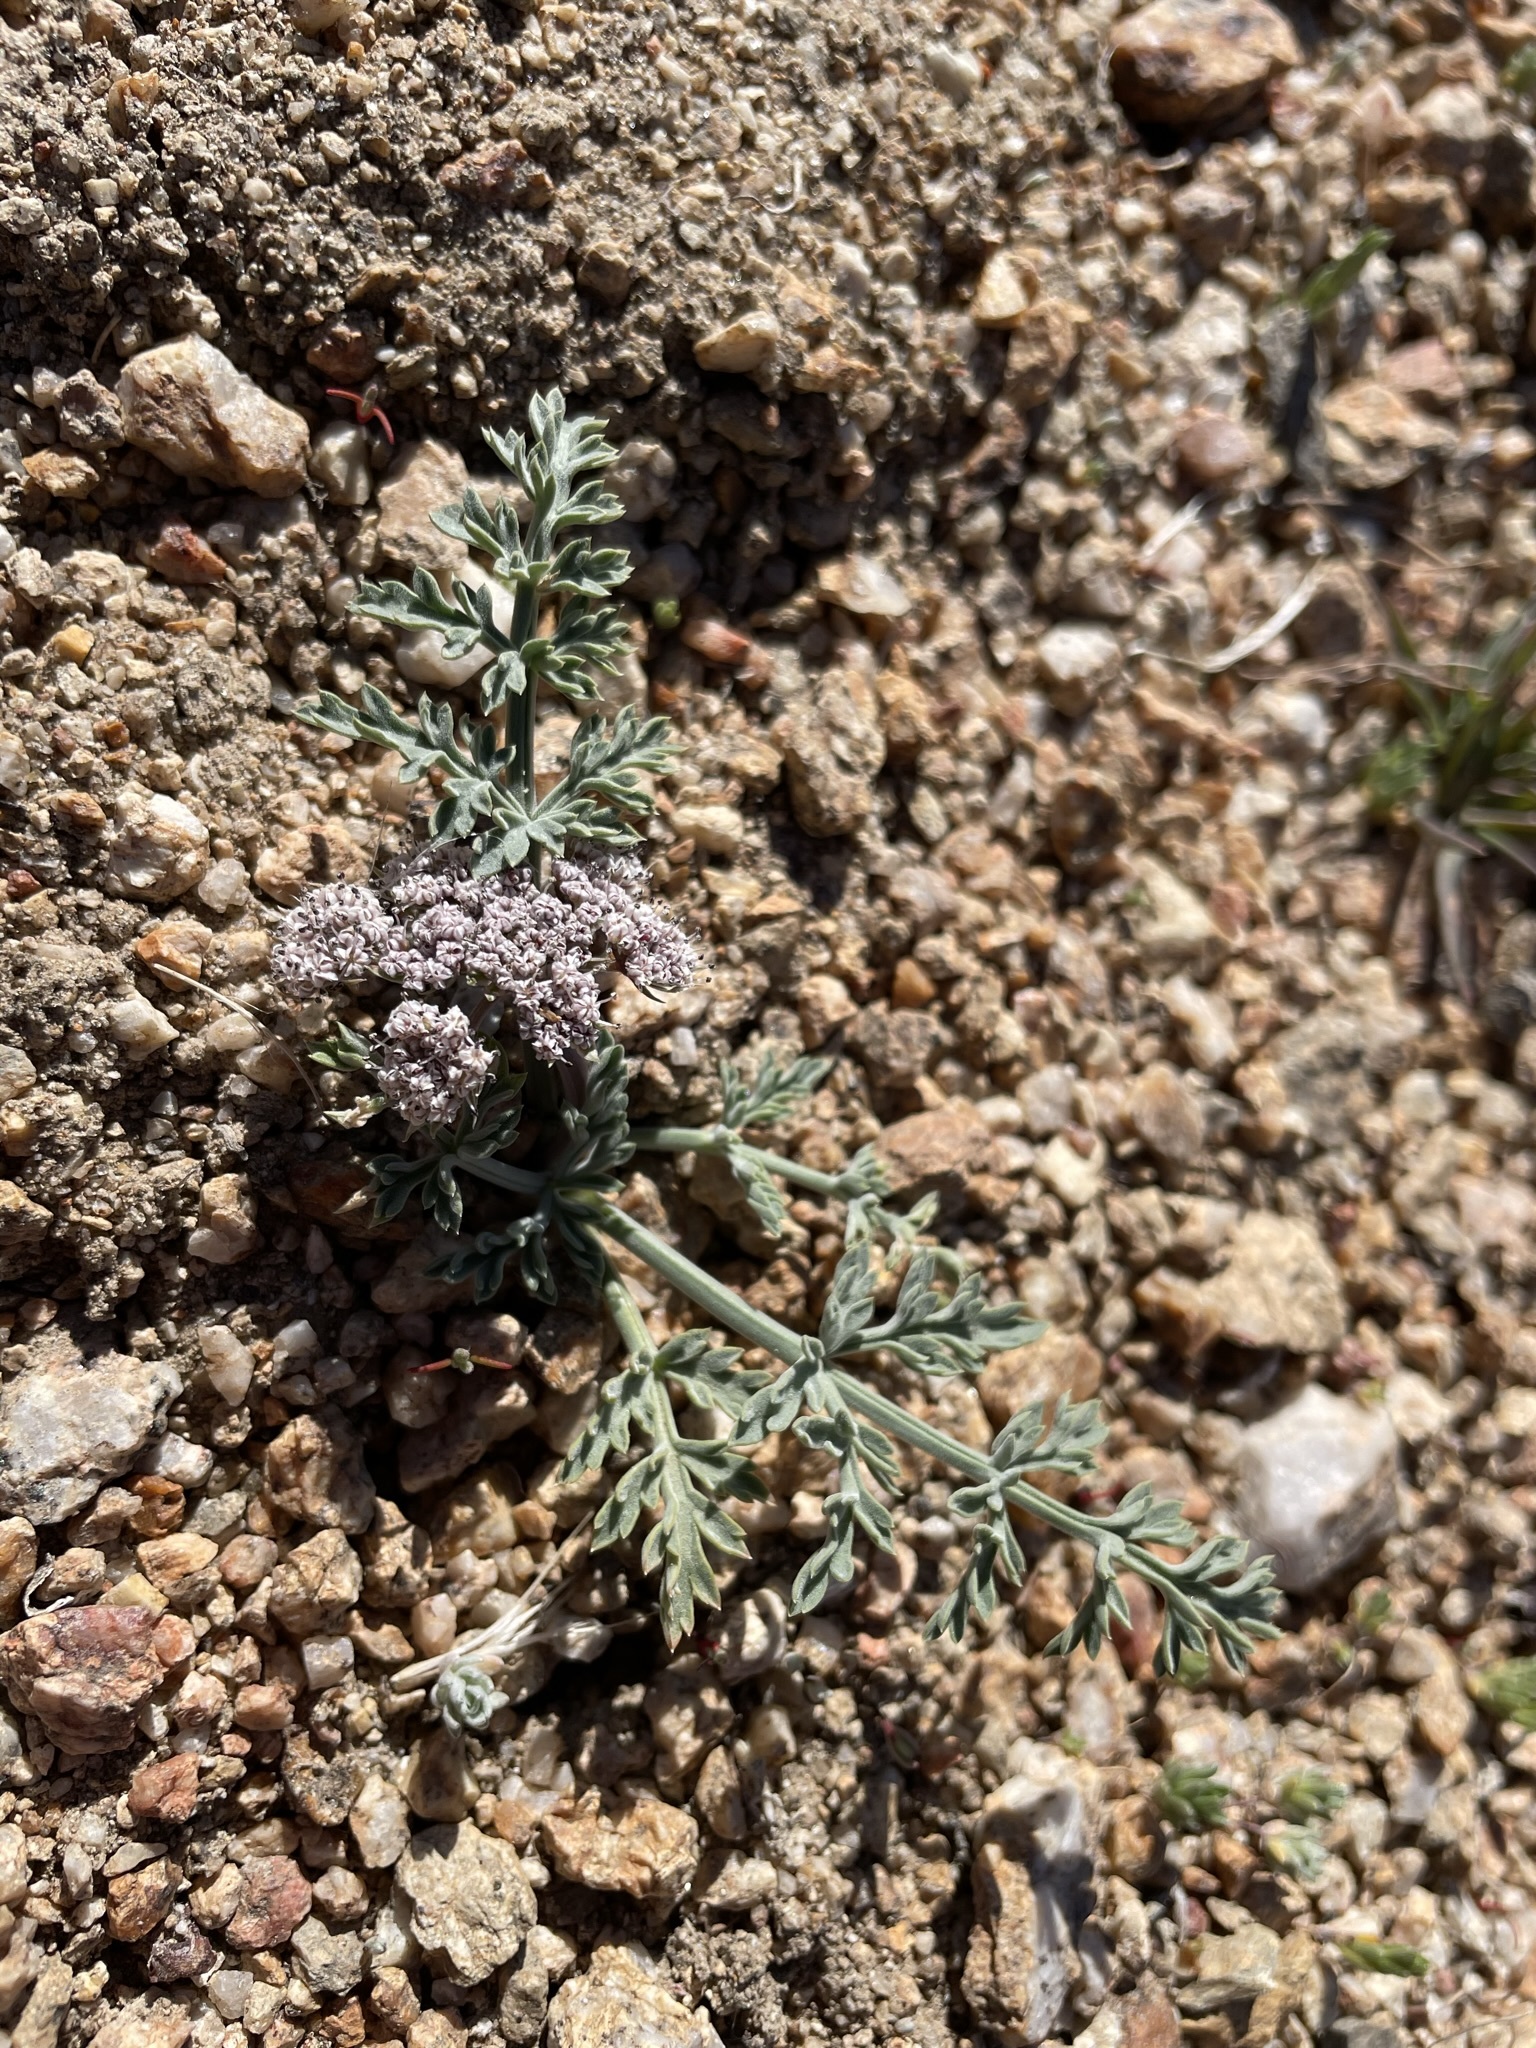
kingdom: Plantae
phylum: Tracheophyta
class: Magnoliopsida
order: Apiales
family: Apiaceae
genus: Lomatium
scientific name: Lomatium nevadense
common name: Nevada lomatium
